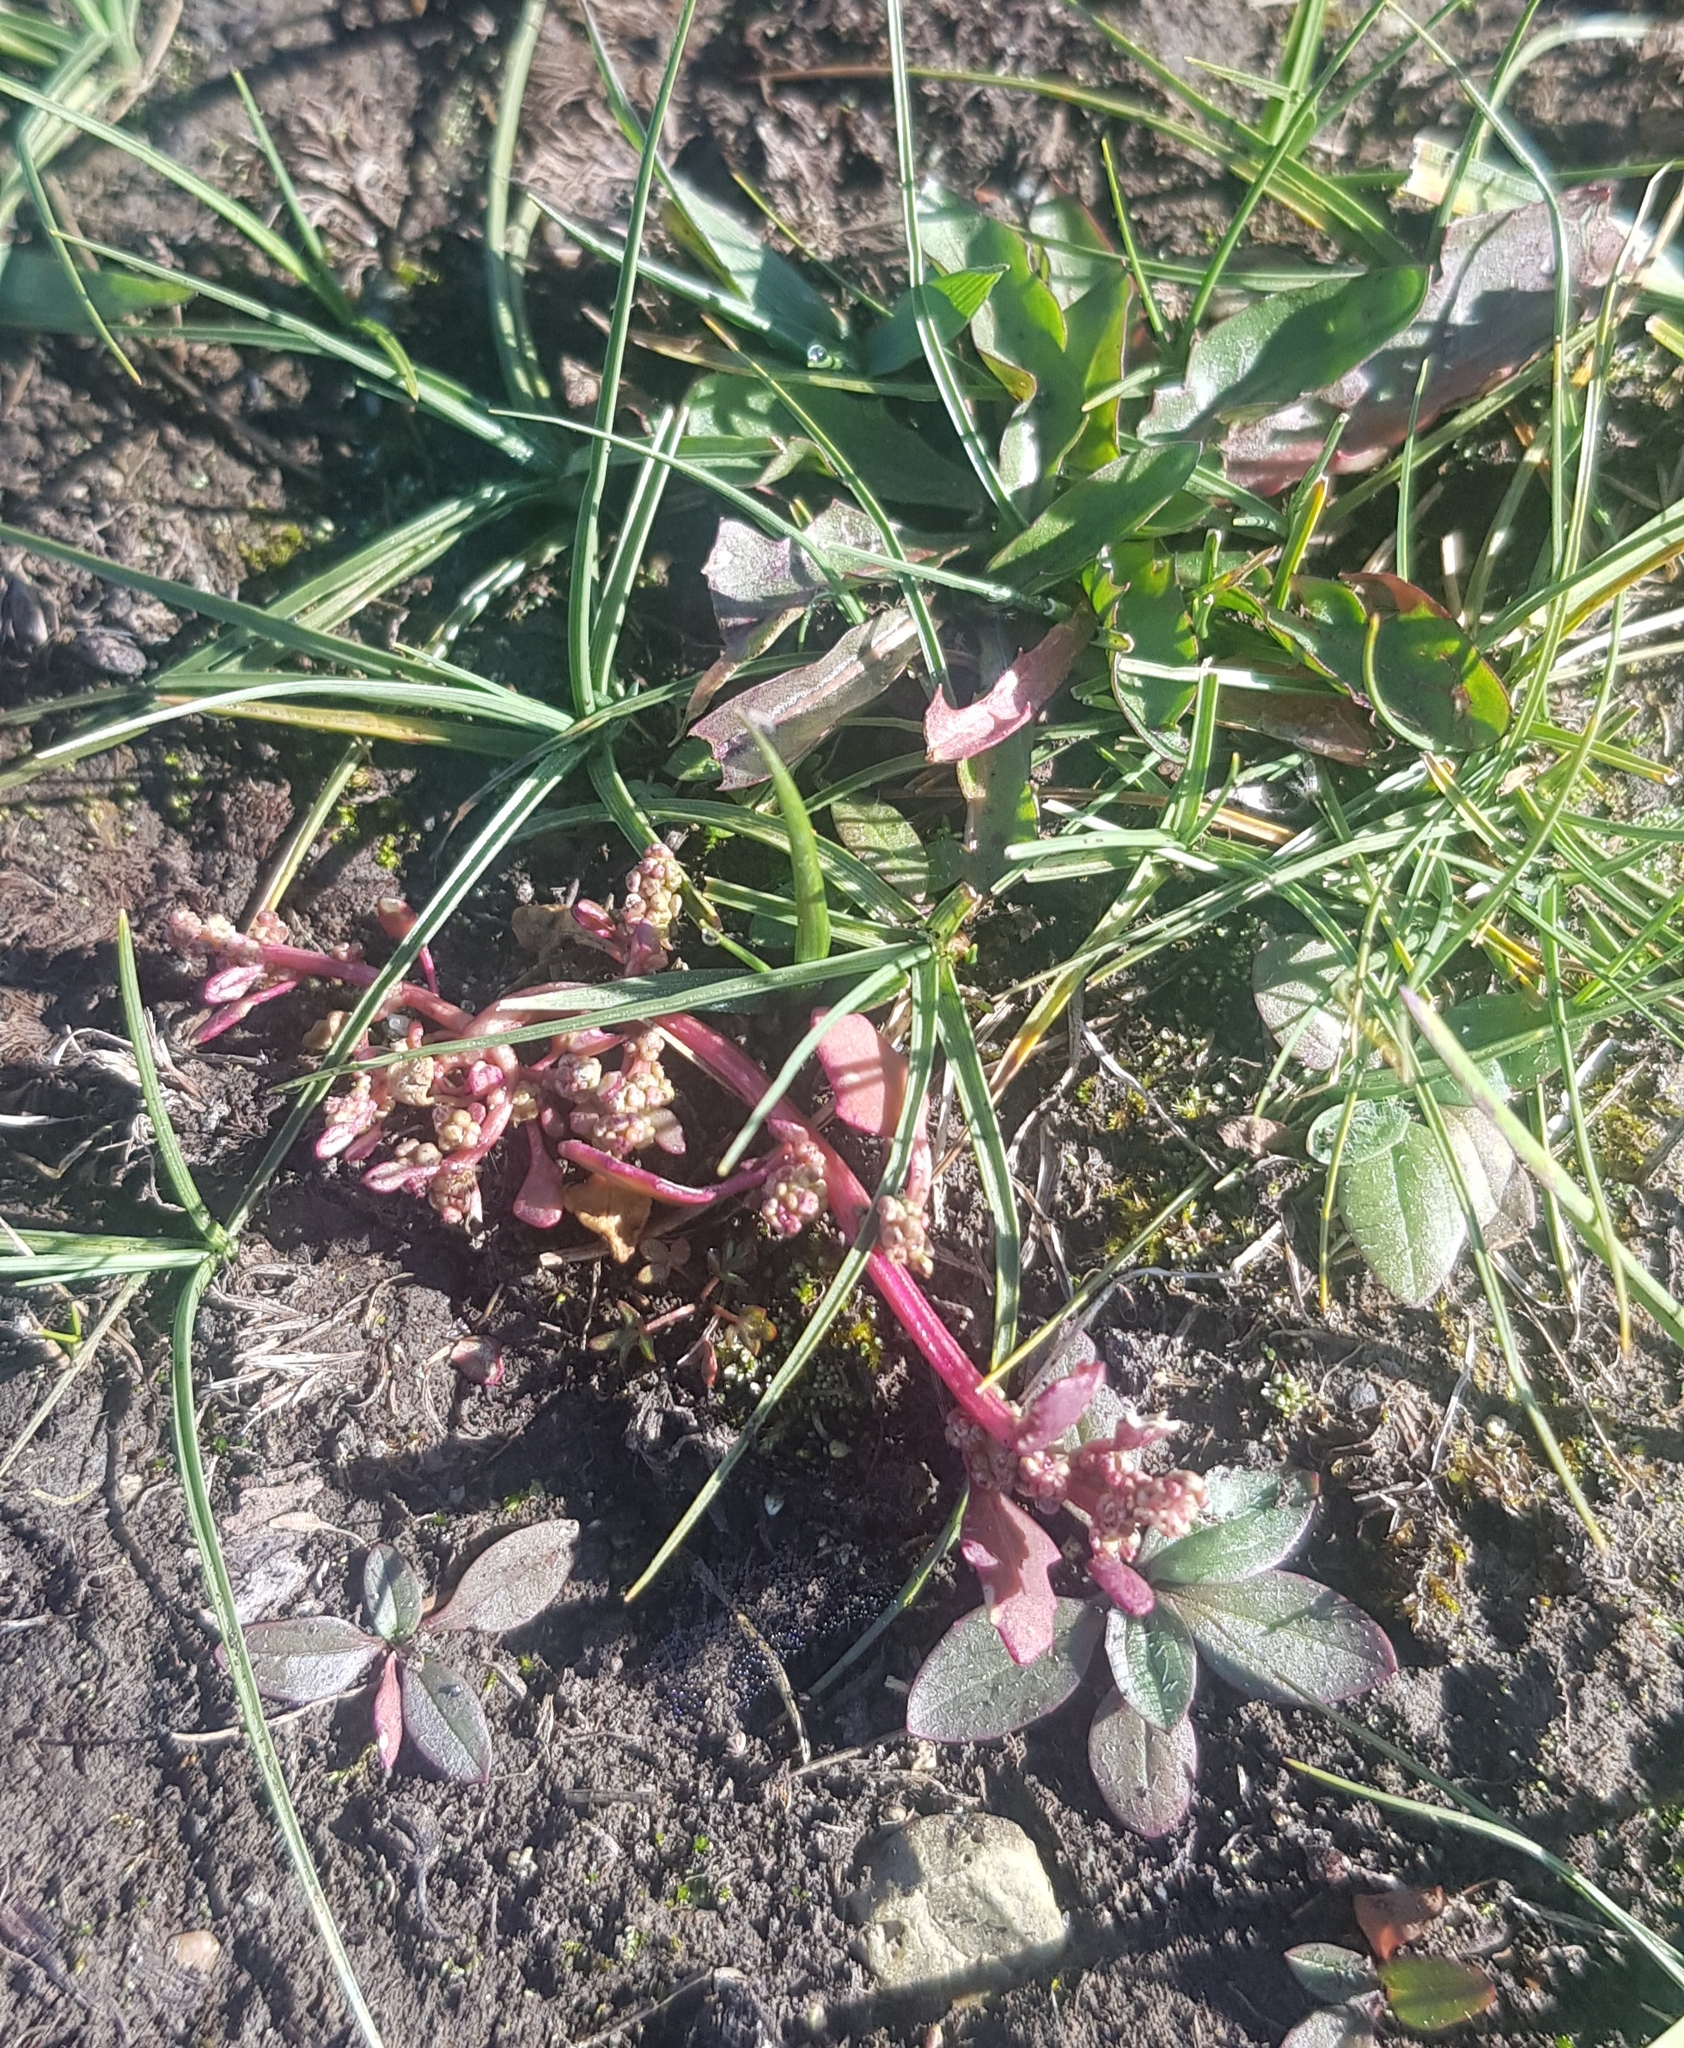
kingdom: Plantae
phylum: Tracheophyta
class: Magnoliopsida
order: Caryophyllales
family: Polygonaceae
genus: Persicaria
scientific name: Persicaria lapathifolia
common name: Curlytop knotweed
